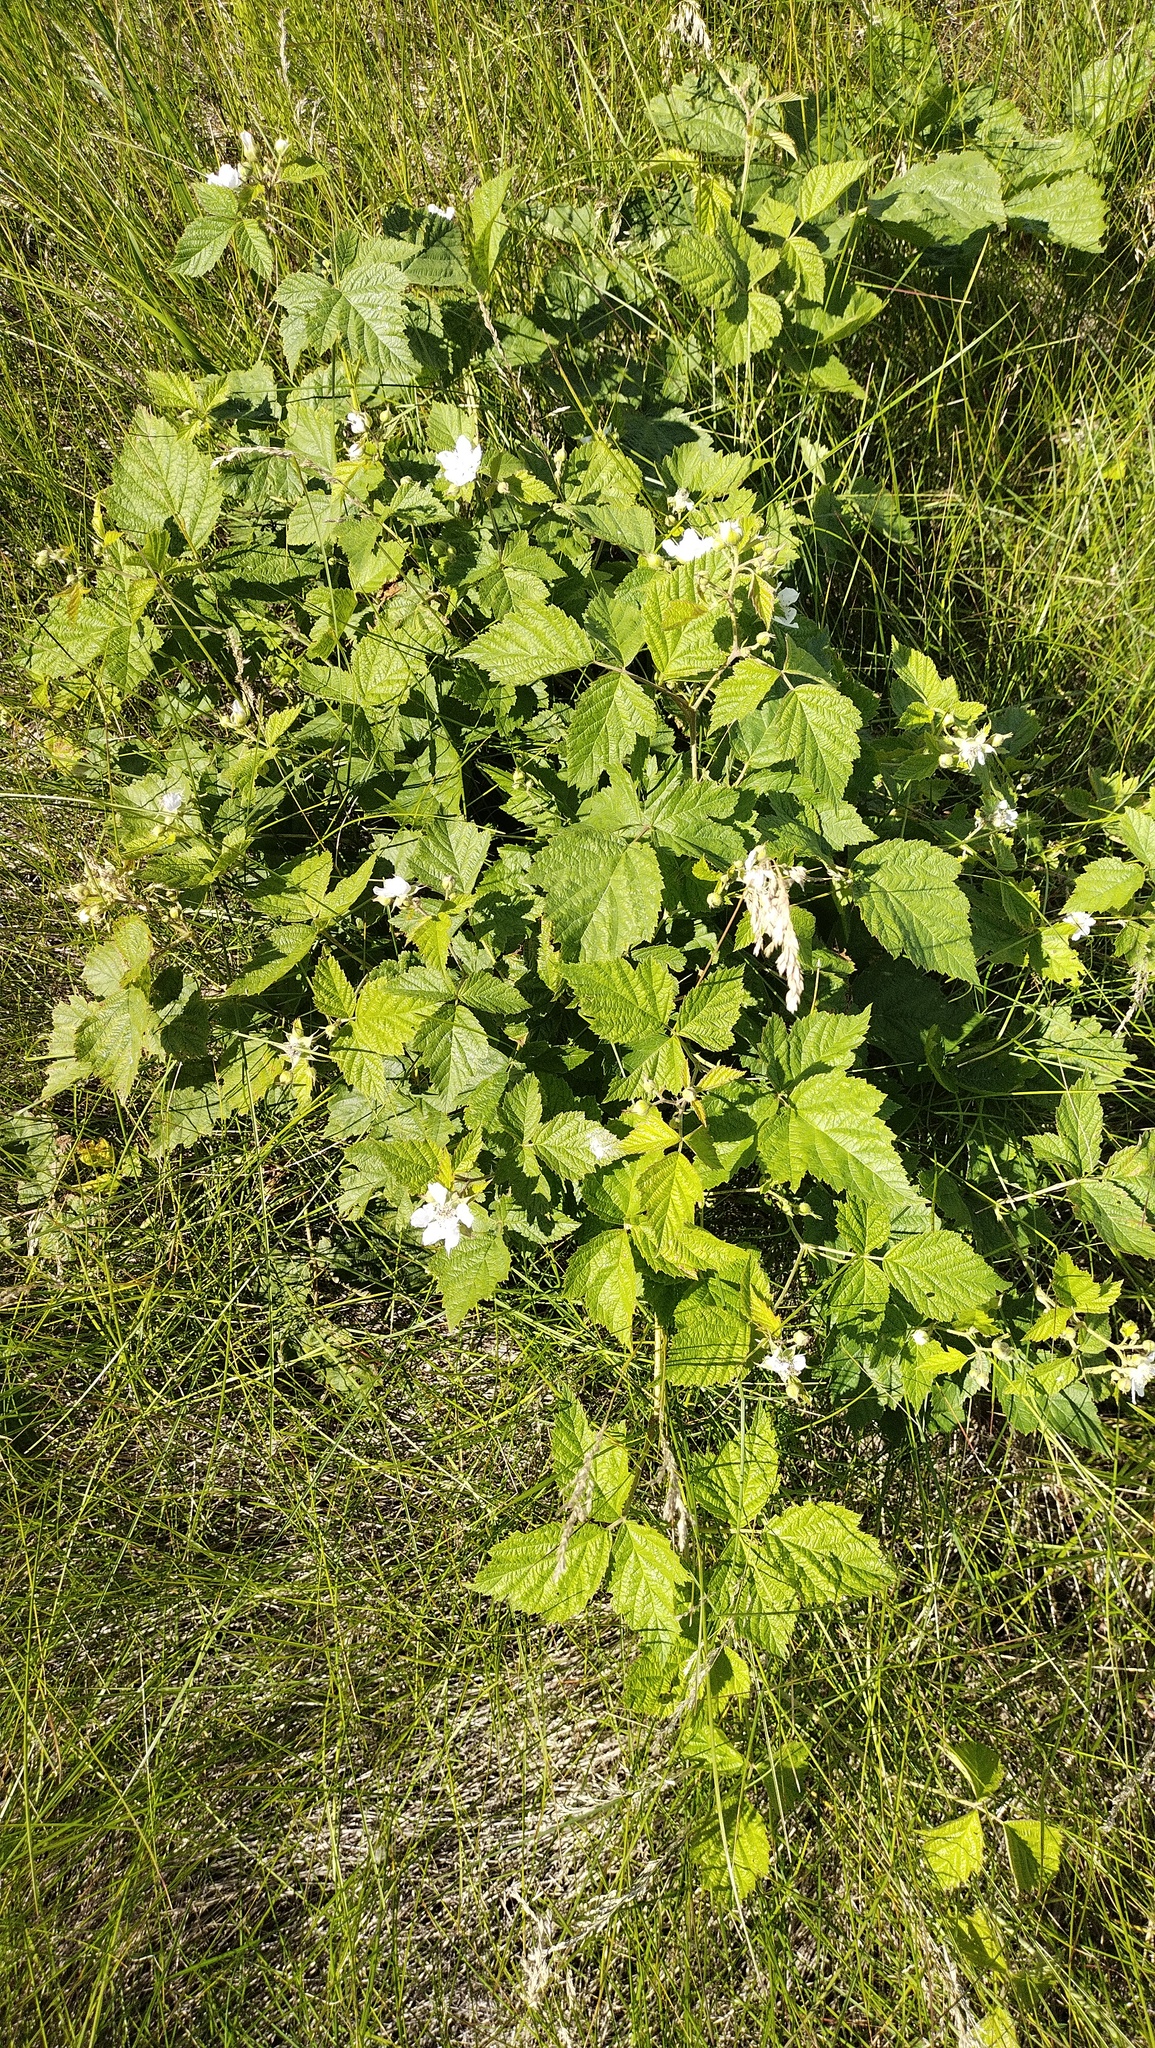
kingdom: Plantae
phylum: Tracheophyta
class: Magnoliopsida
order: Rosales
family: Rosaceae
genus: Rubus
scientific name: Rubus caesius
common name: Dewberry
